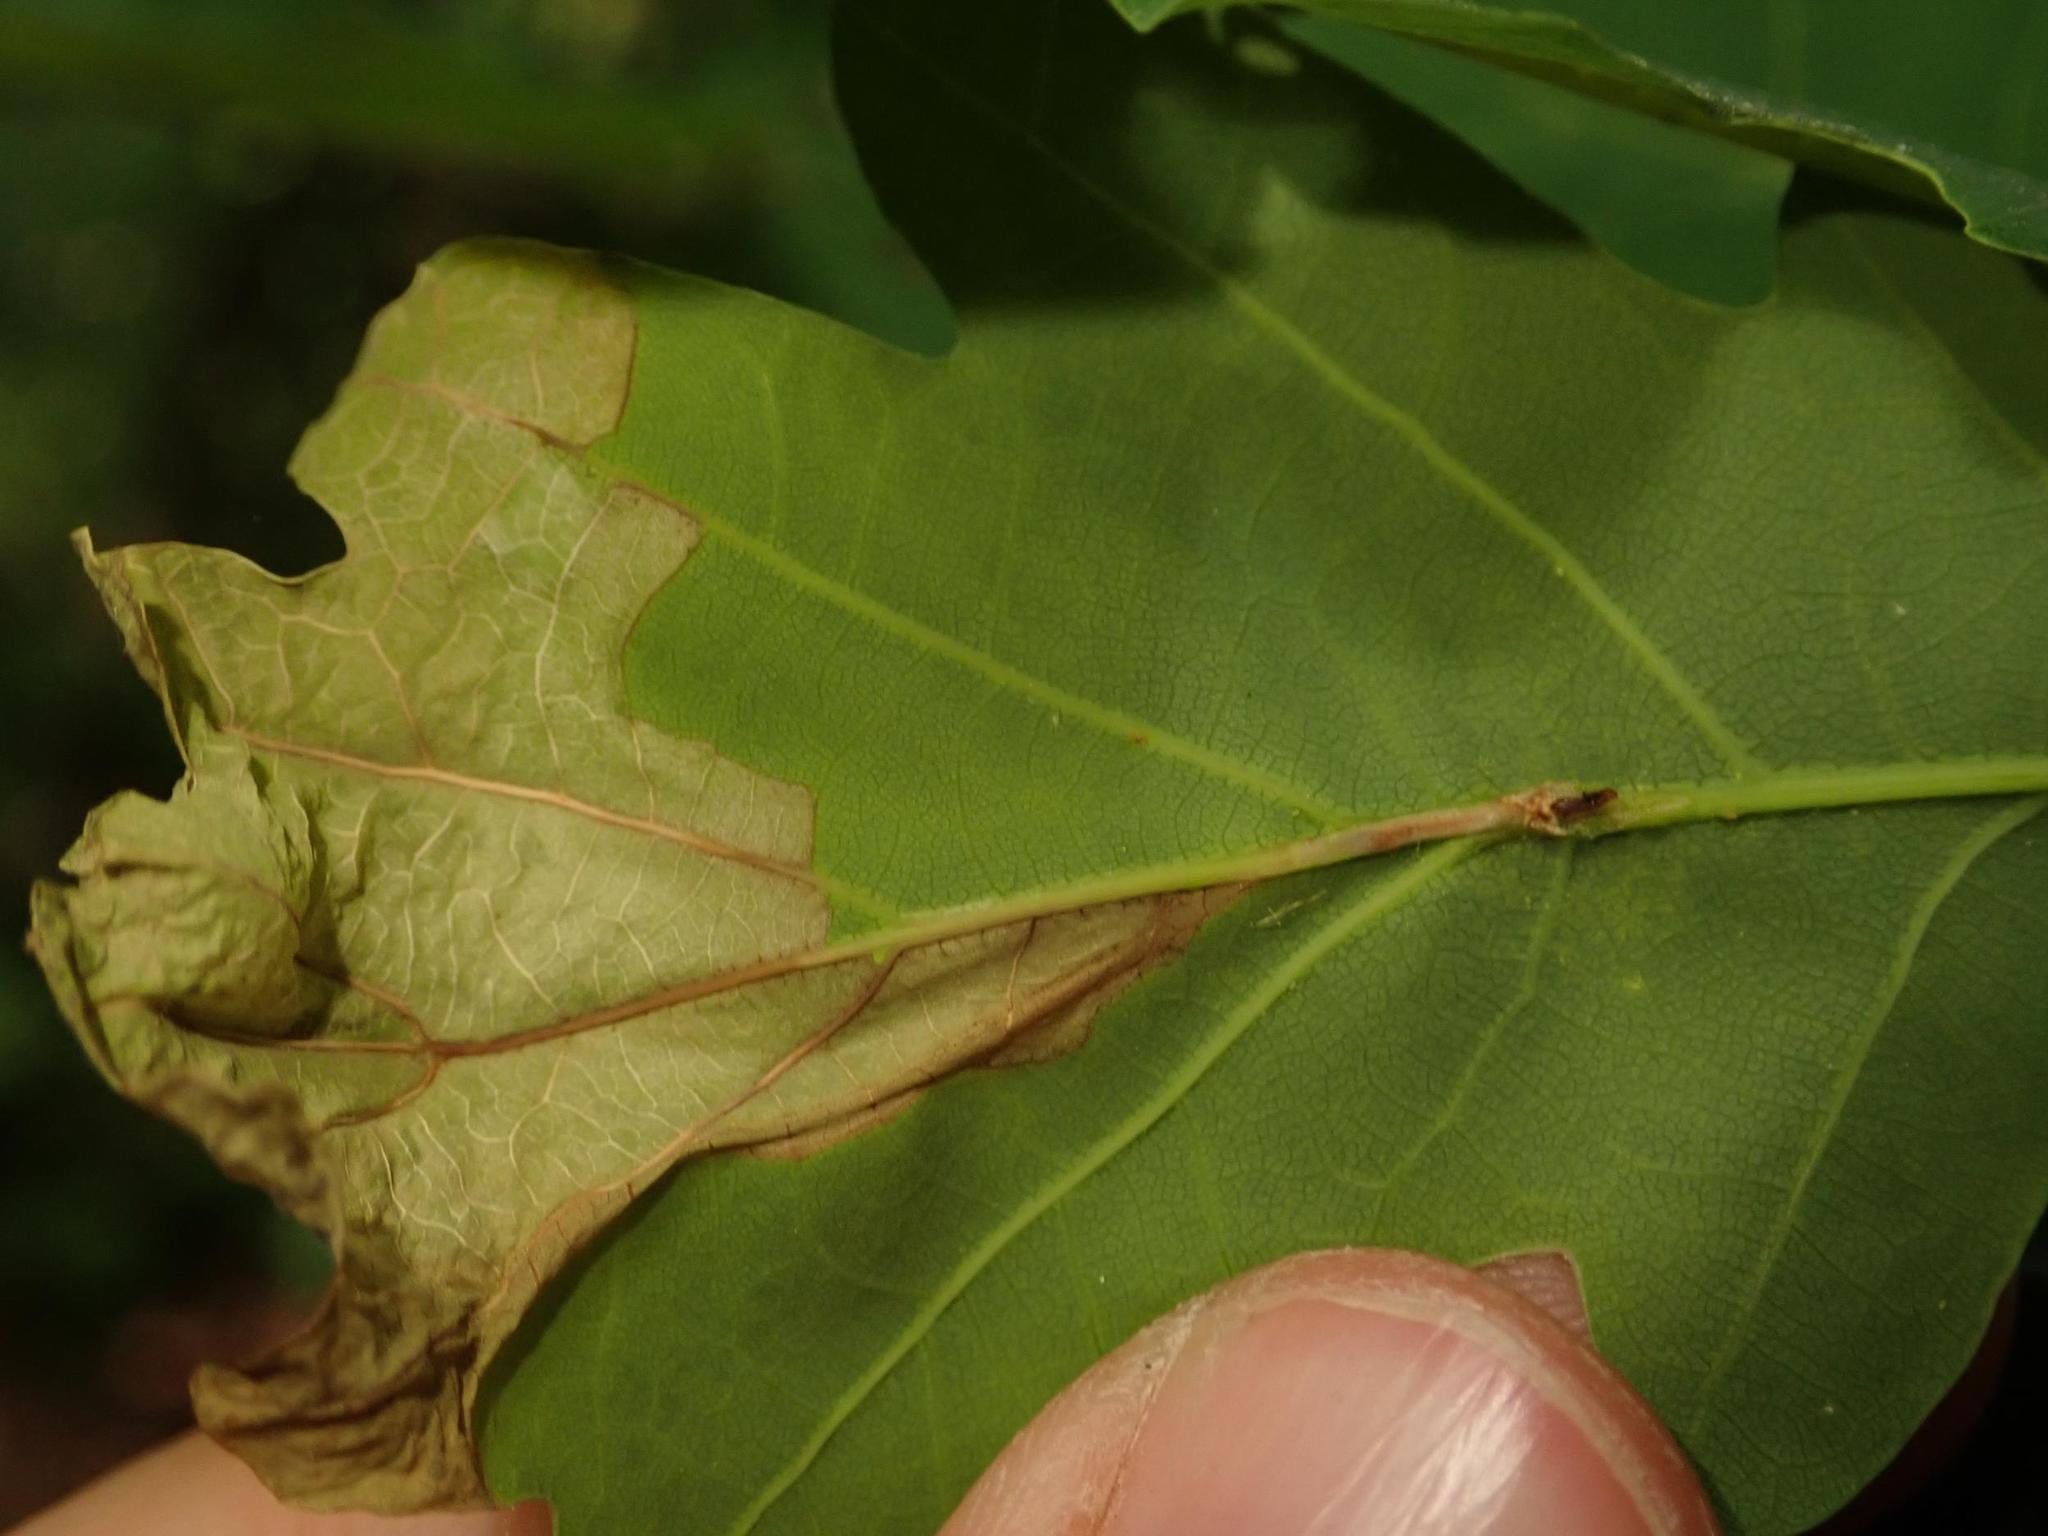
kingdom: Animalia
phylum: Arthropoda
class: Insecta
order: Coleoptera
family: Curculionidae
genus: Orchestes
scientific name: Orchestes quercus
